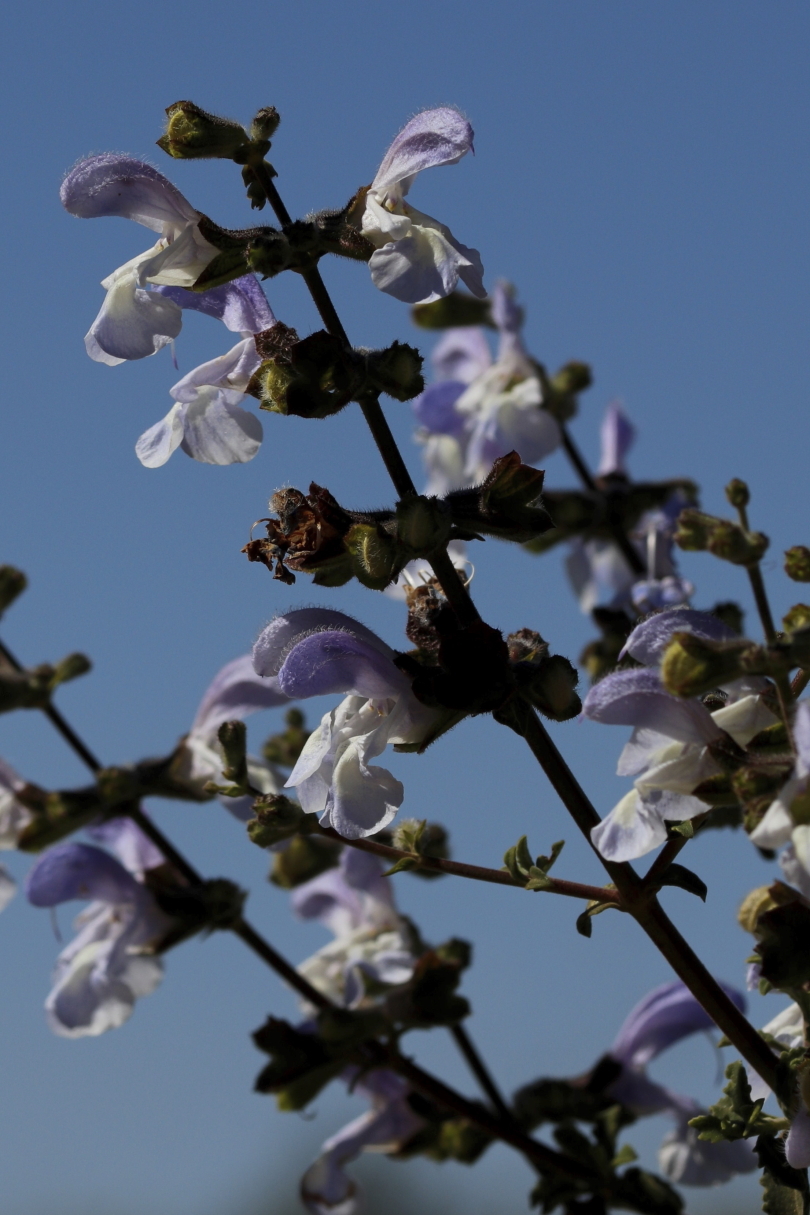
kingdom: Plantae
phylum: Tracheophyta
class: Magnoliopsida
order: Lamiales
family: Lamiaceae
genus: Salvia
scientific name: Salvia africana
